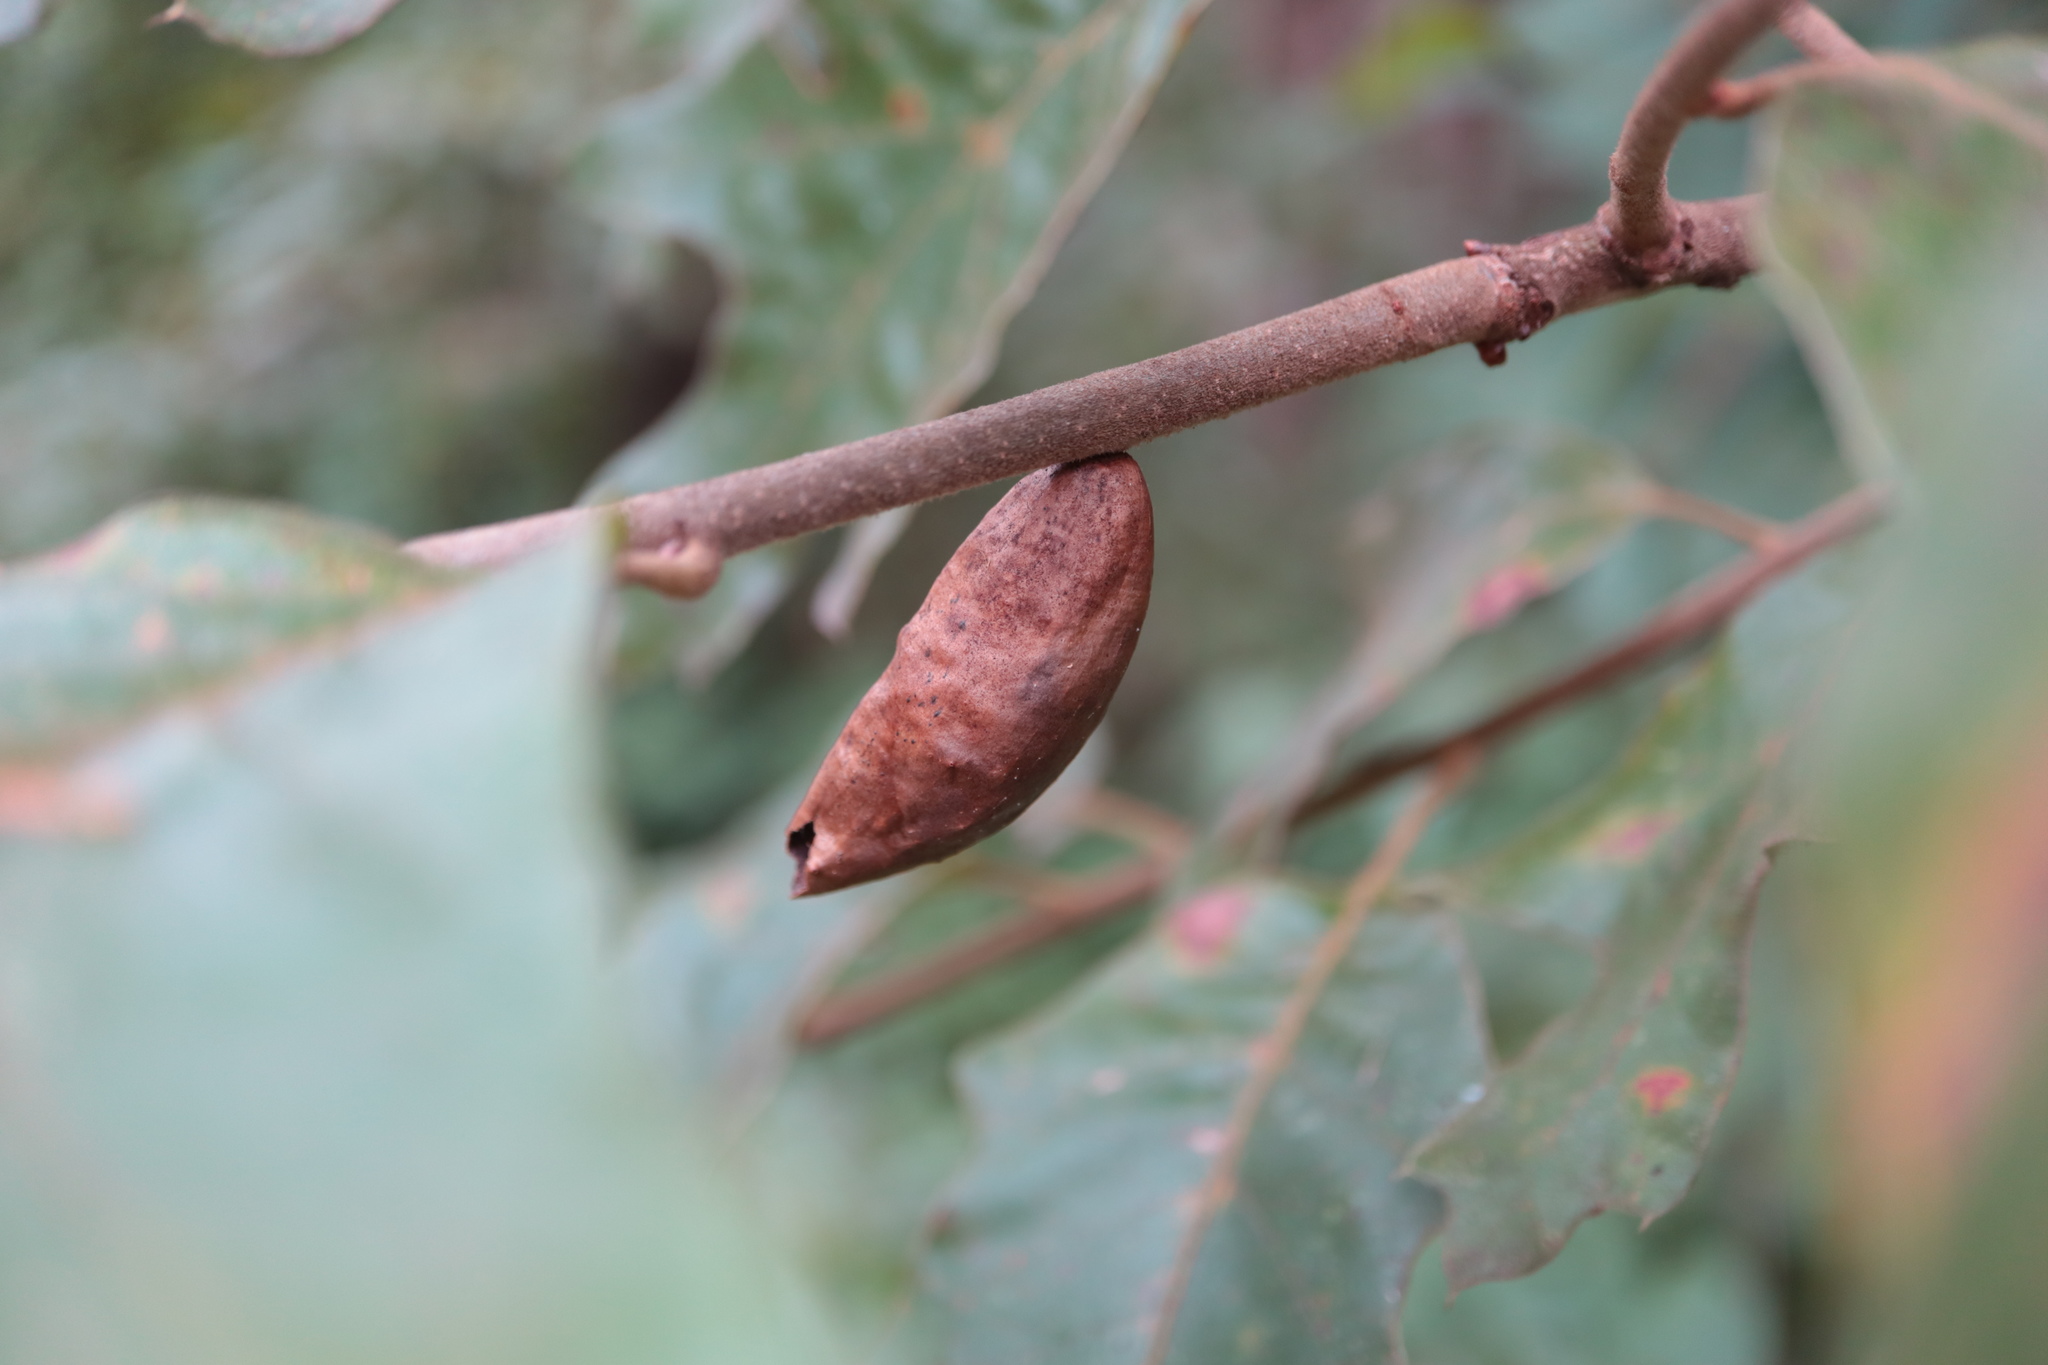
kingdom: Animalia
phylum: Arthropoda
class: Insecta
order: Hymenoptera
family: Cynipidae
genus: Amphibolips
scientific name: Amphibolips
